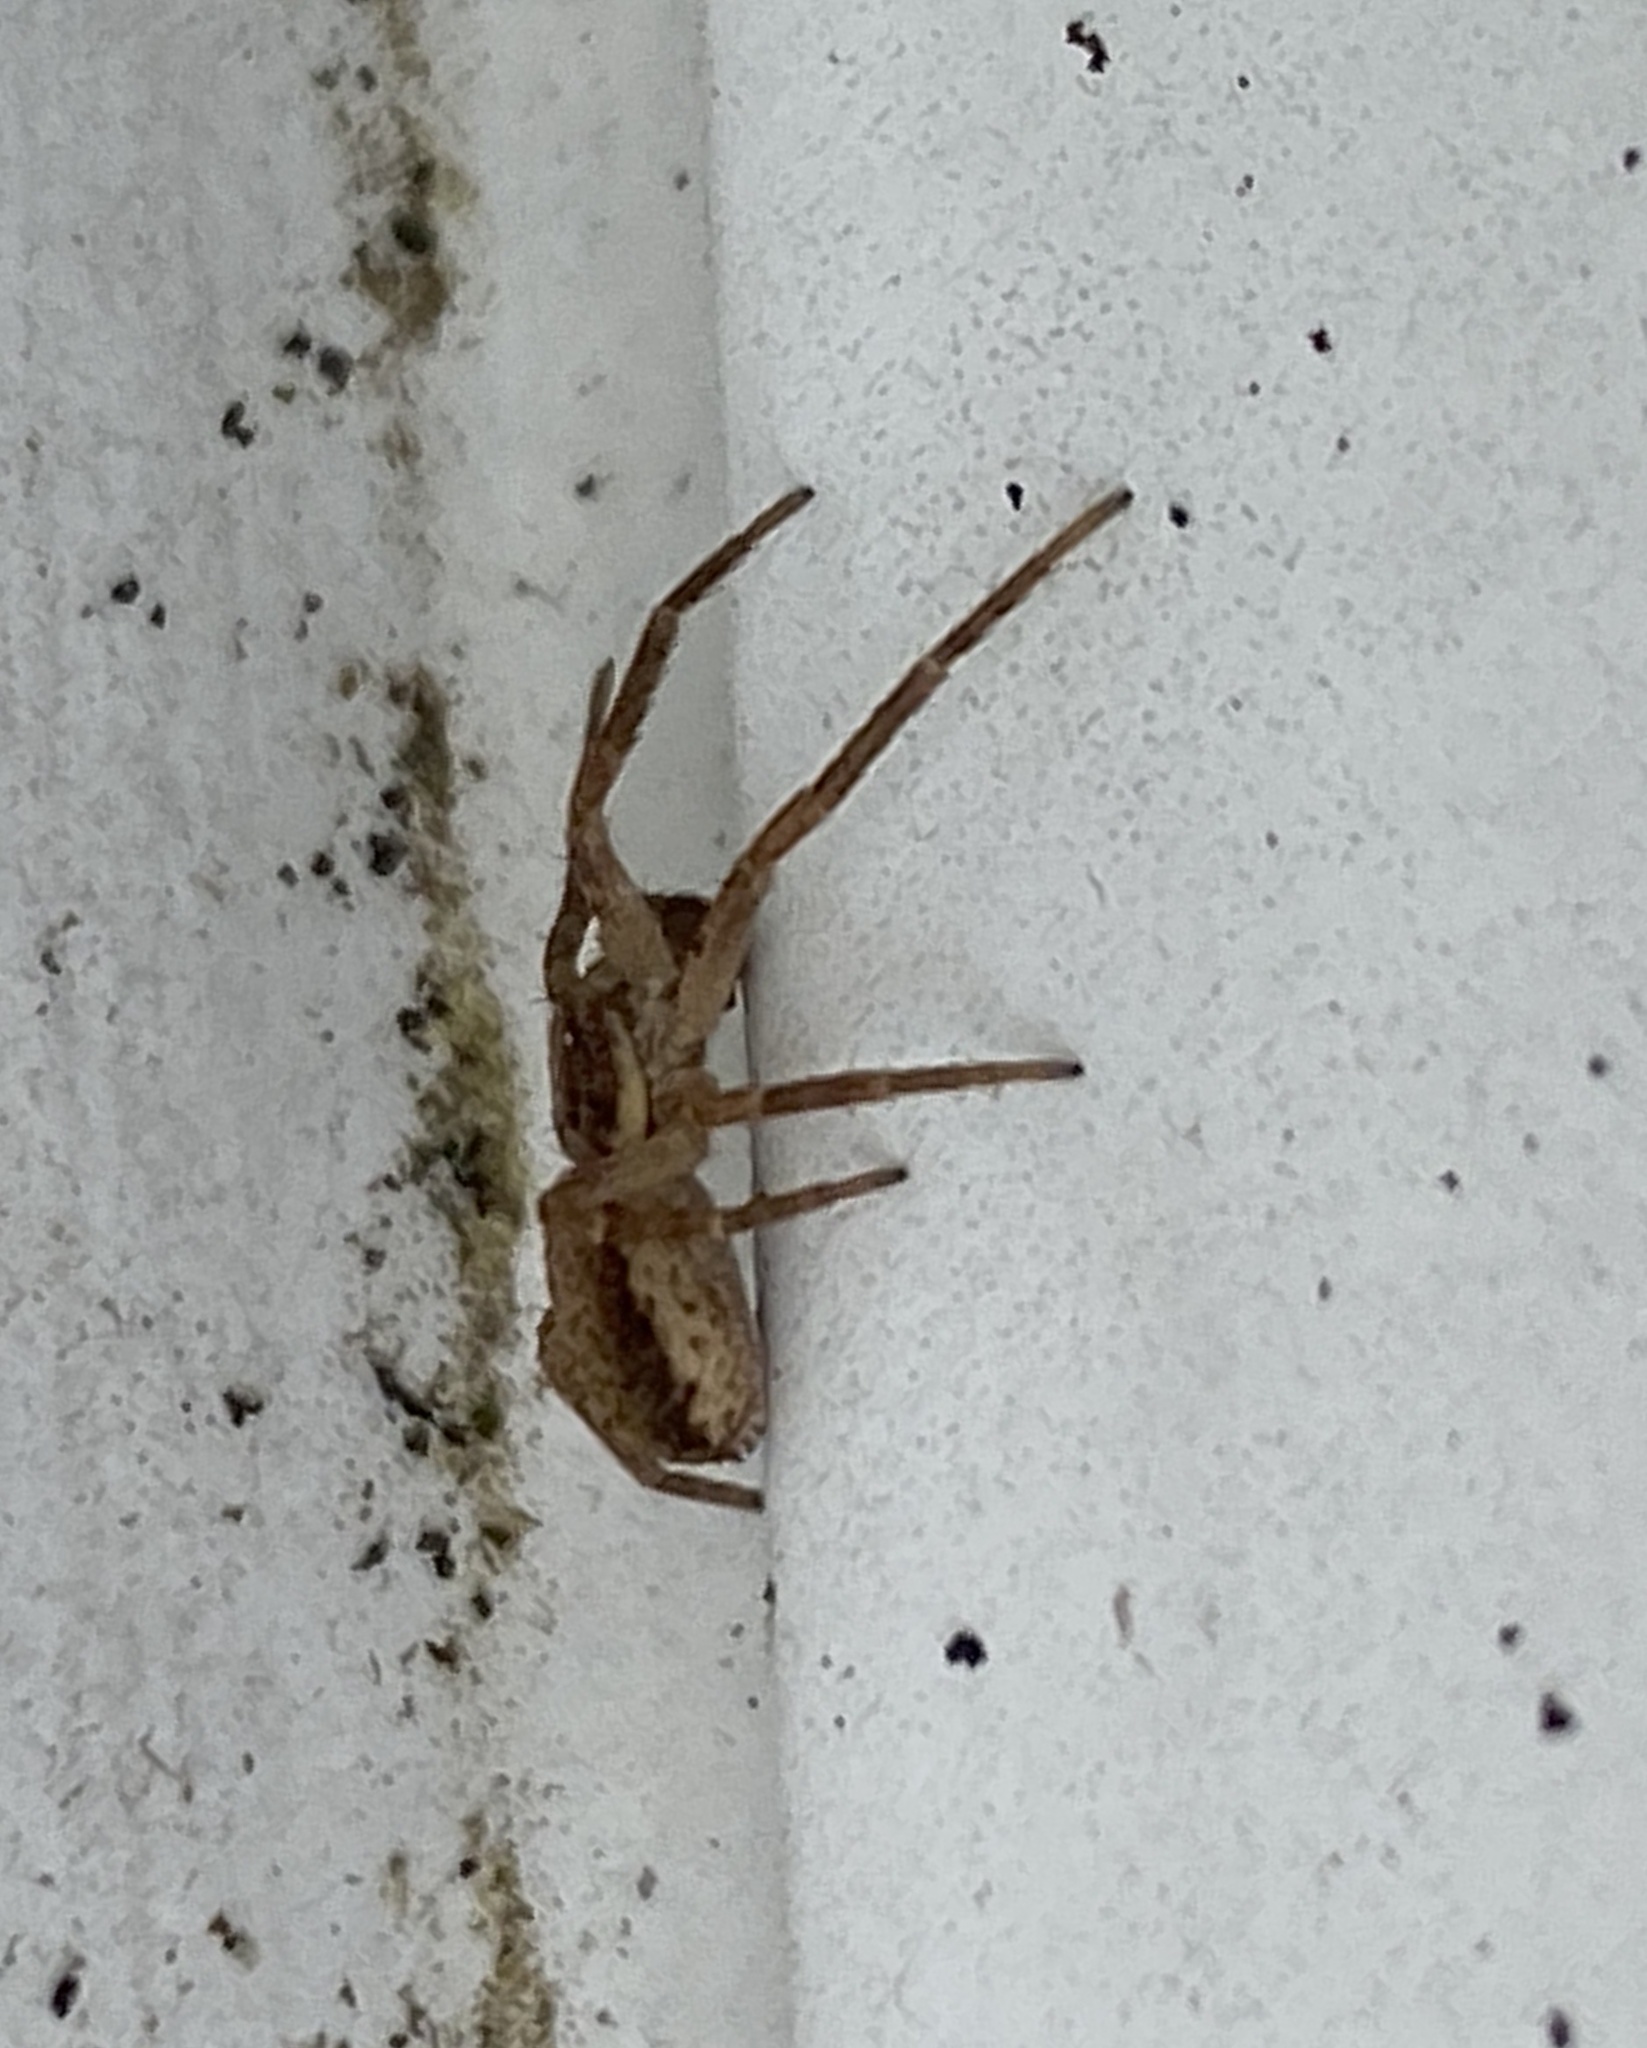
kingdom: Animalia
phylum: Arthropoda
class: Arachnida
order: Araneae
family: Philodromidae
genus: Philodromus
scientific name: Philodromus dispar
